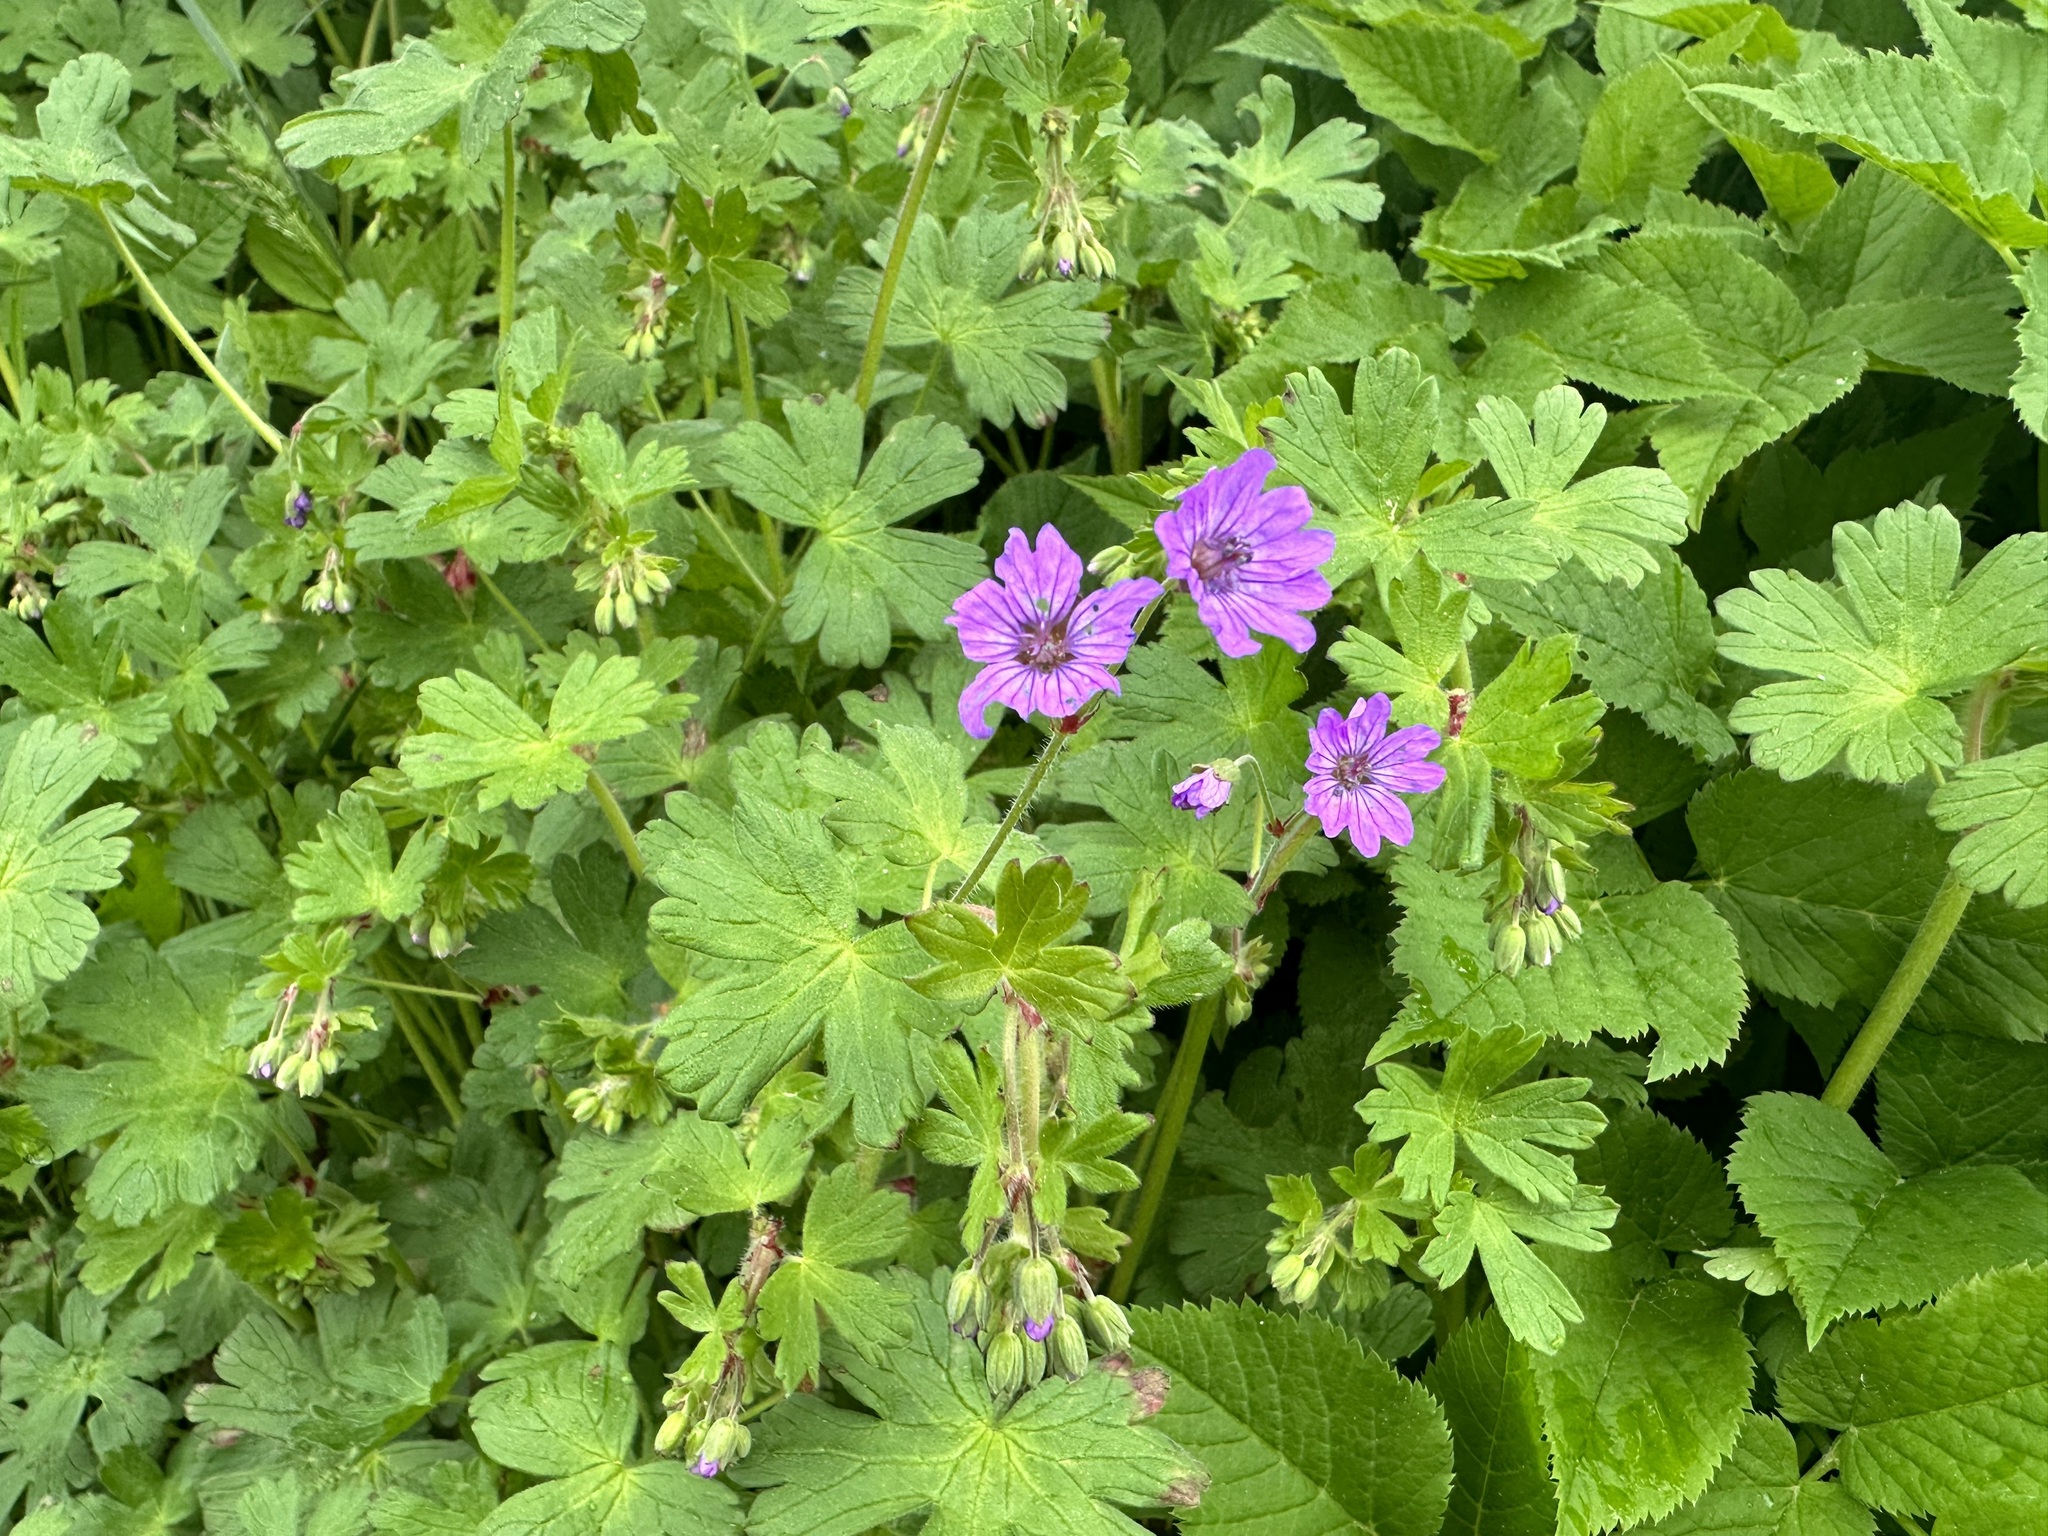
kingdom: Plantae
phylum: Tracheophyta
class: Magnoliopsida
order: Geraniales
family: Geraniaceae
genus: Geranium
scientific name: Geranium pyrenaicum
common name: Hedgerow crane's-bill
